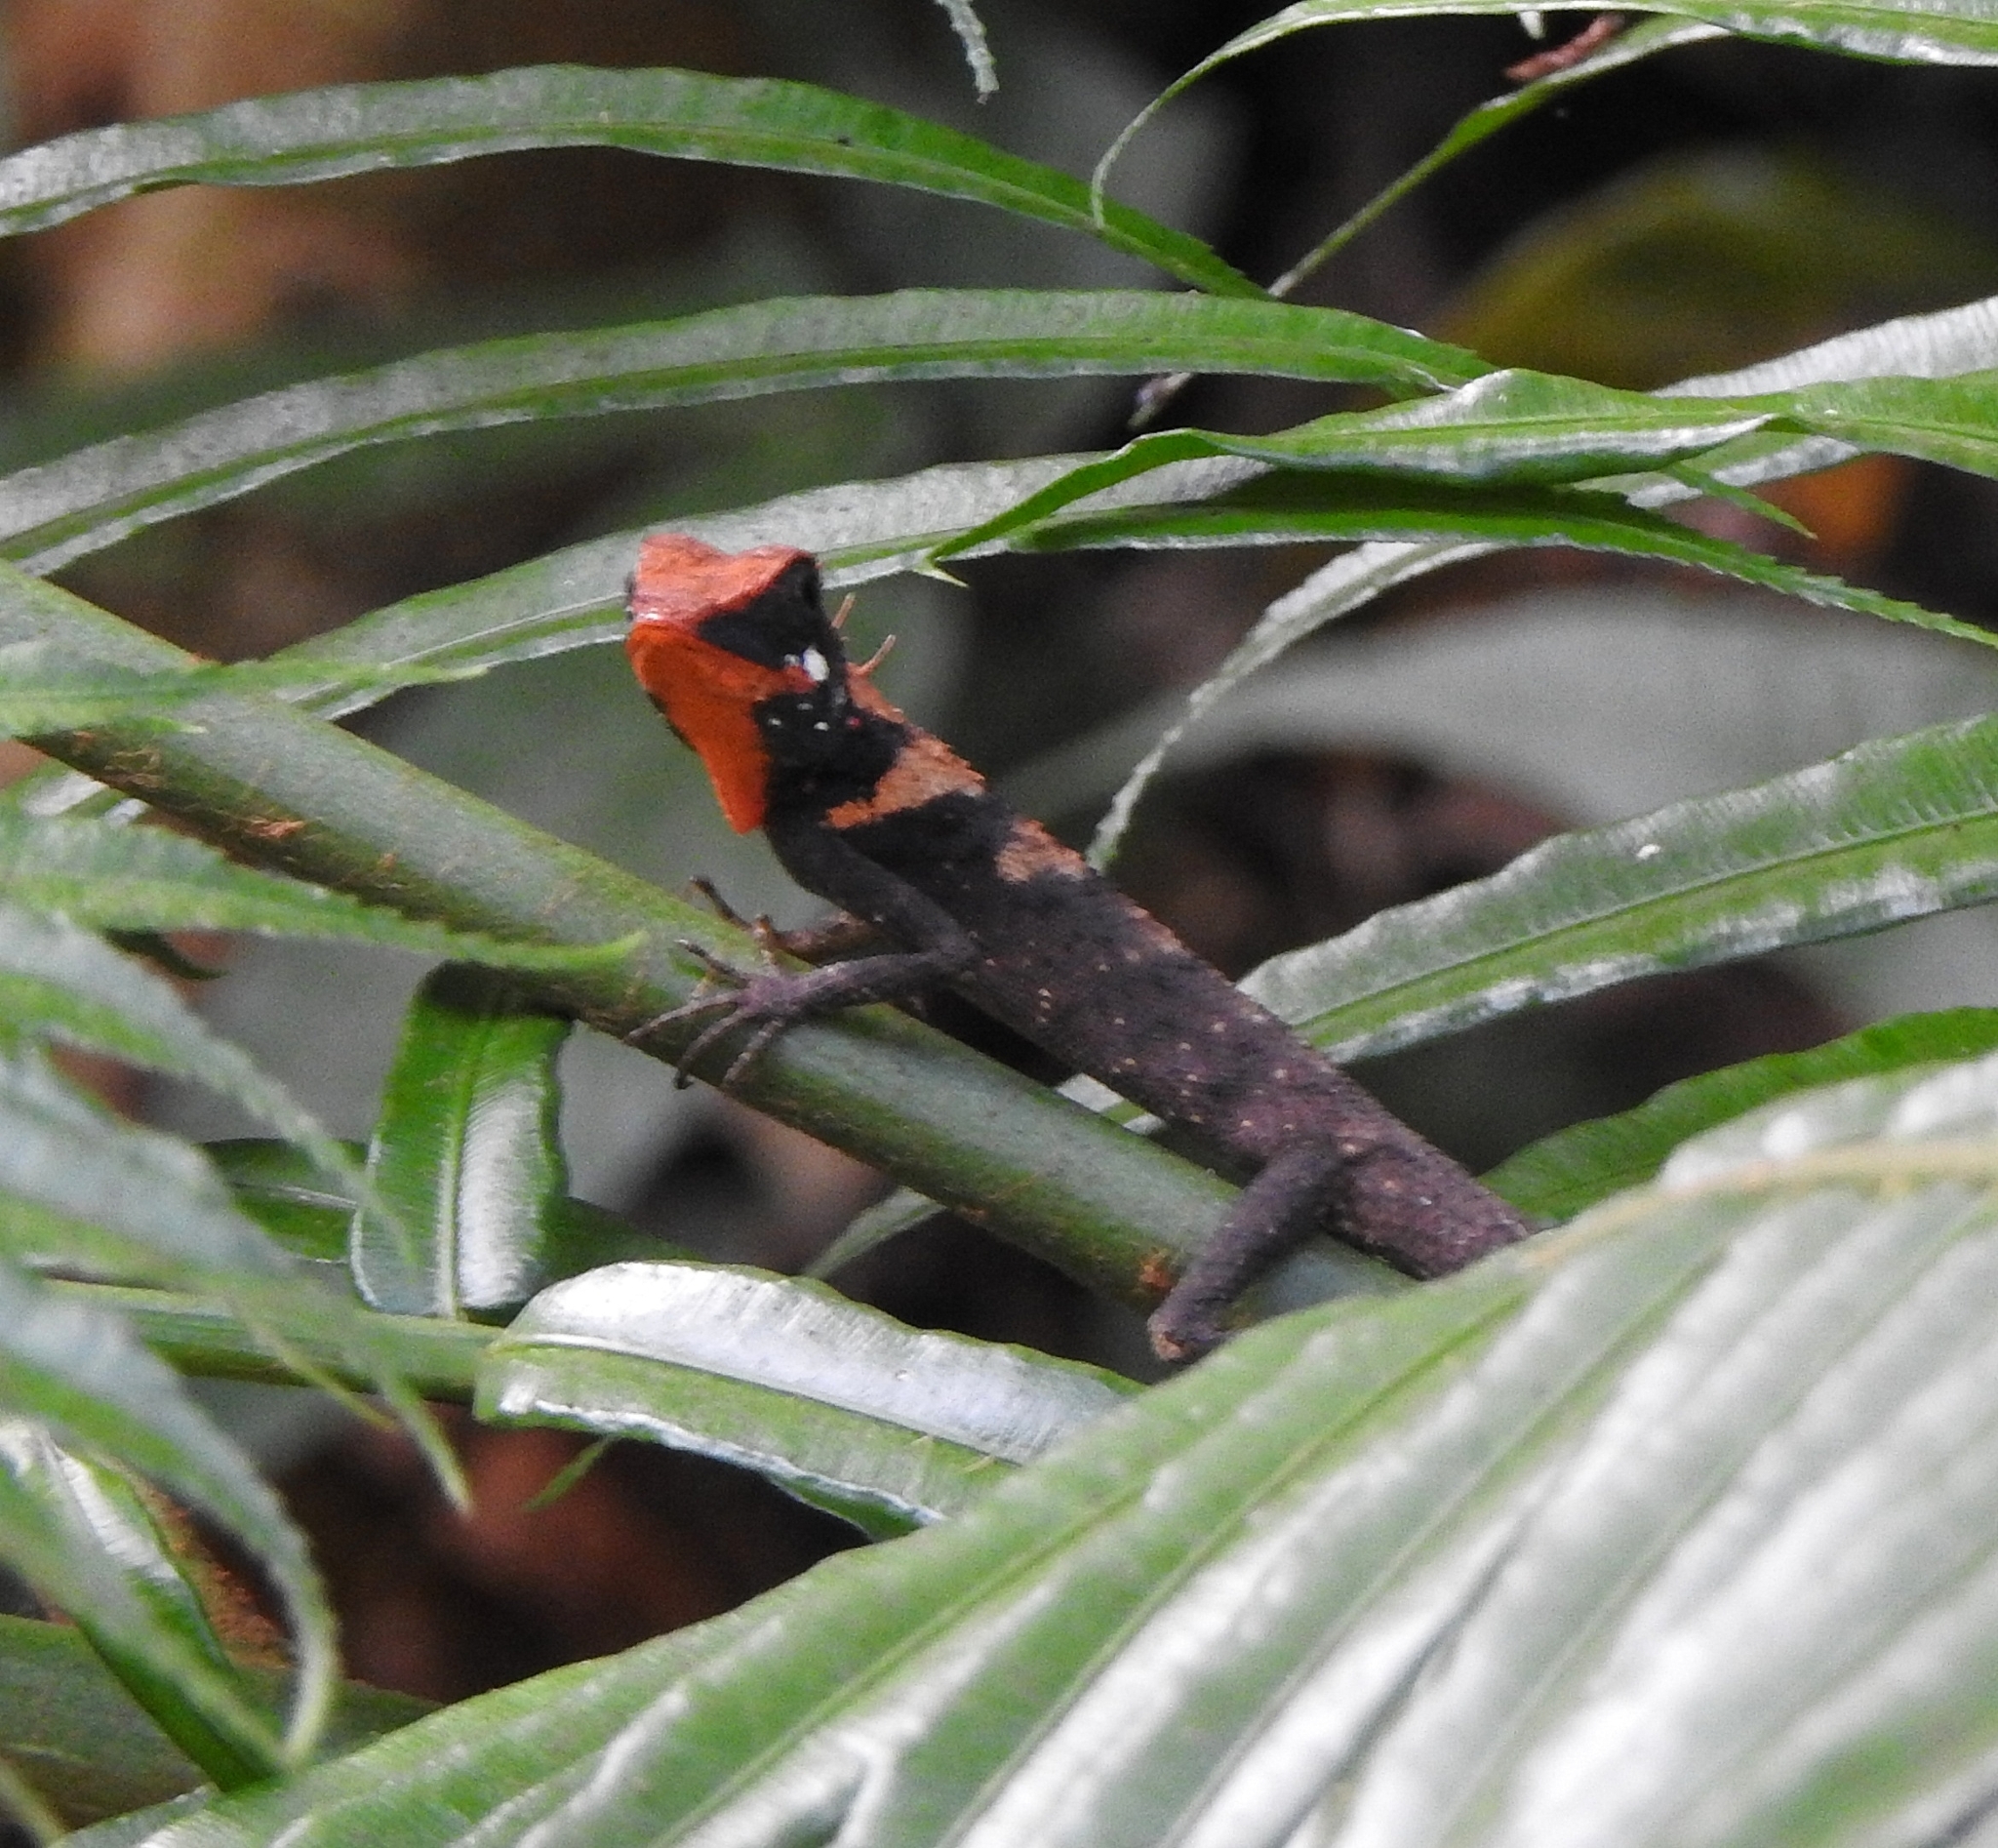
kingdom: Animalia
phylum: Chordata
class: Squamata
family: Agamidae
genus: Monilesaurus
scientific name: Monilesaurus rouxii
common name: Roux's forest lizard
